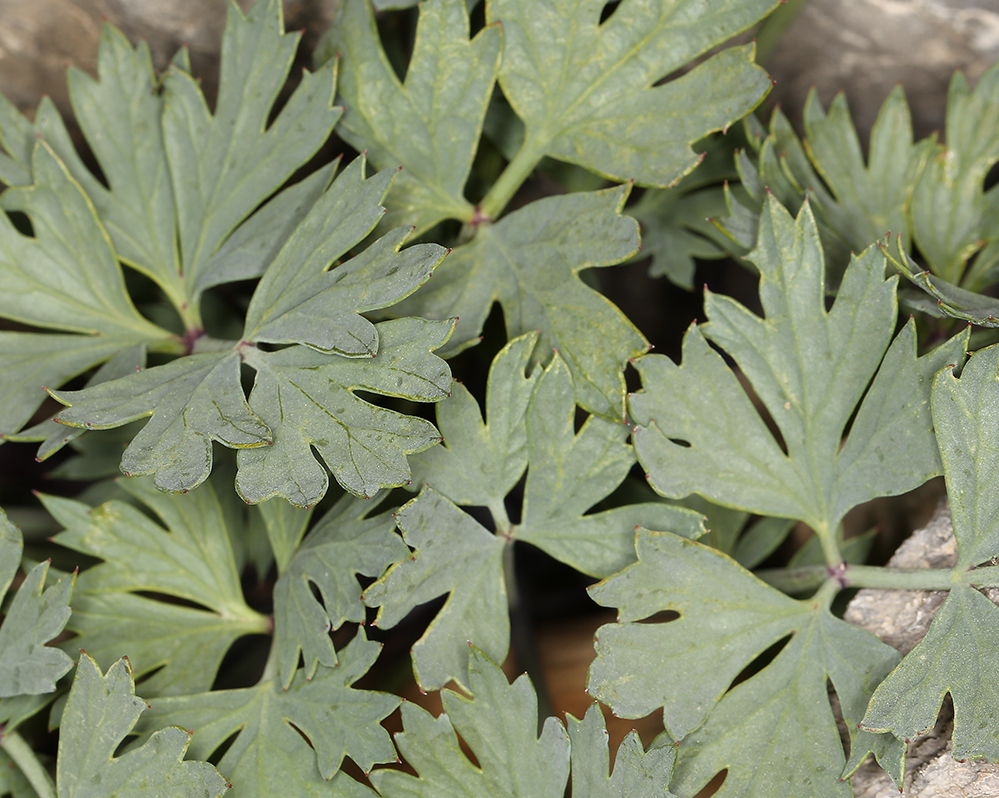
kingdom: Plantae
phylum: Tracheophyta
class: Magnoliopsida
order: Apiales
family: Apiaceae
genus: Cymopterus
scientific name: Cymopterus gilmanii
